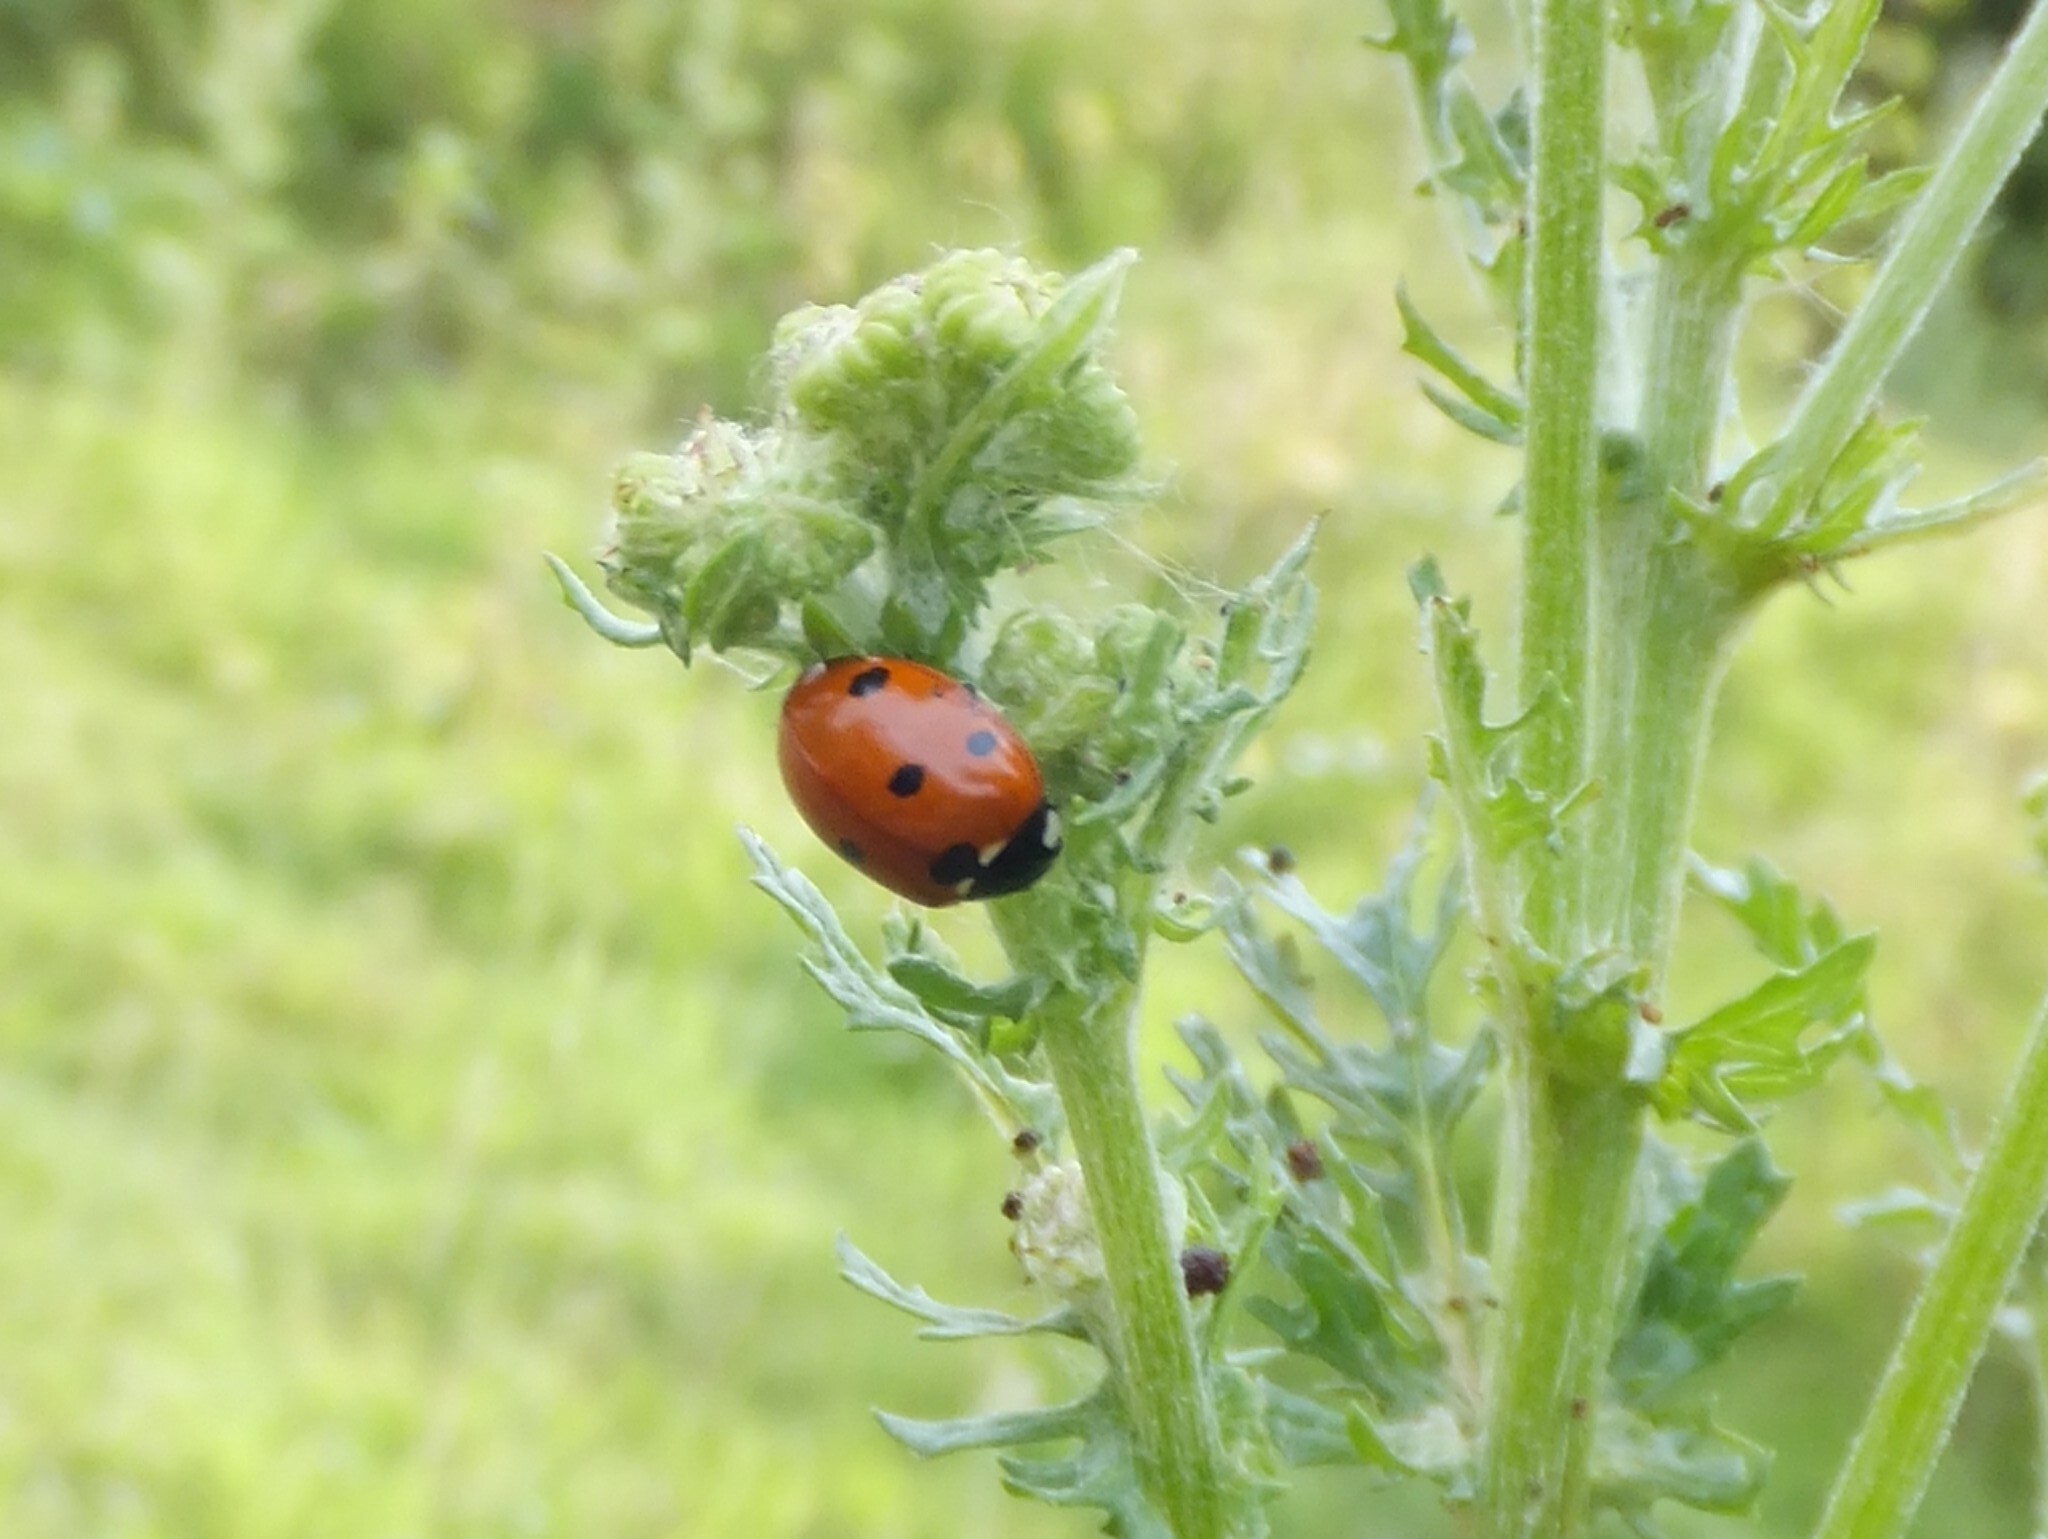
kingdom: Animalia
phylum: Arthropoda
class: Insecta
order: Coleoptera
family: Coccinellidae
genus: Coccinella
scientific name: Coccinella septempunctata
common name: Sevenspotted lady beetle
